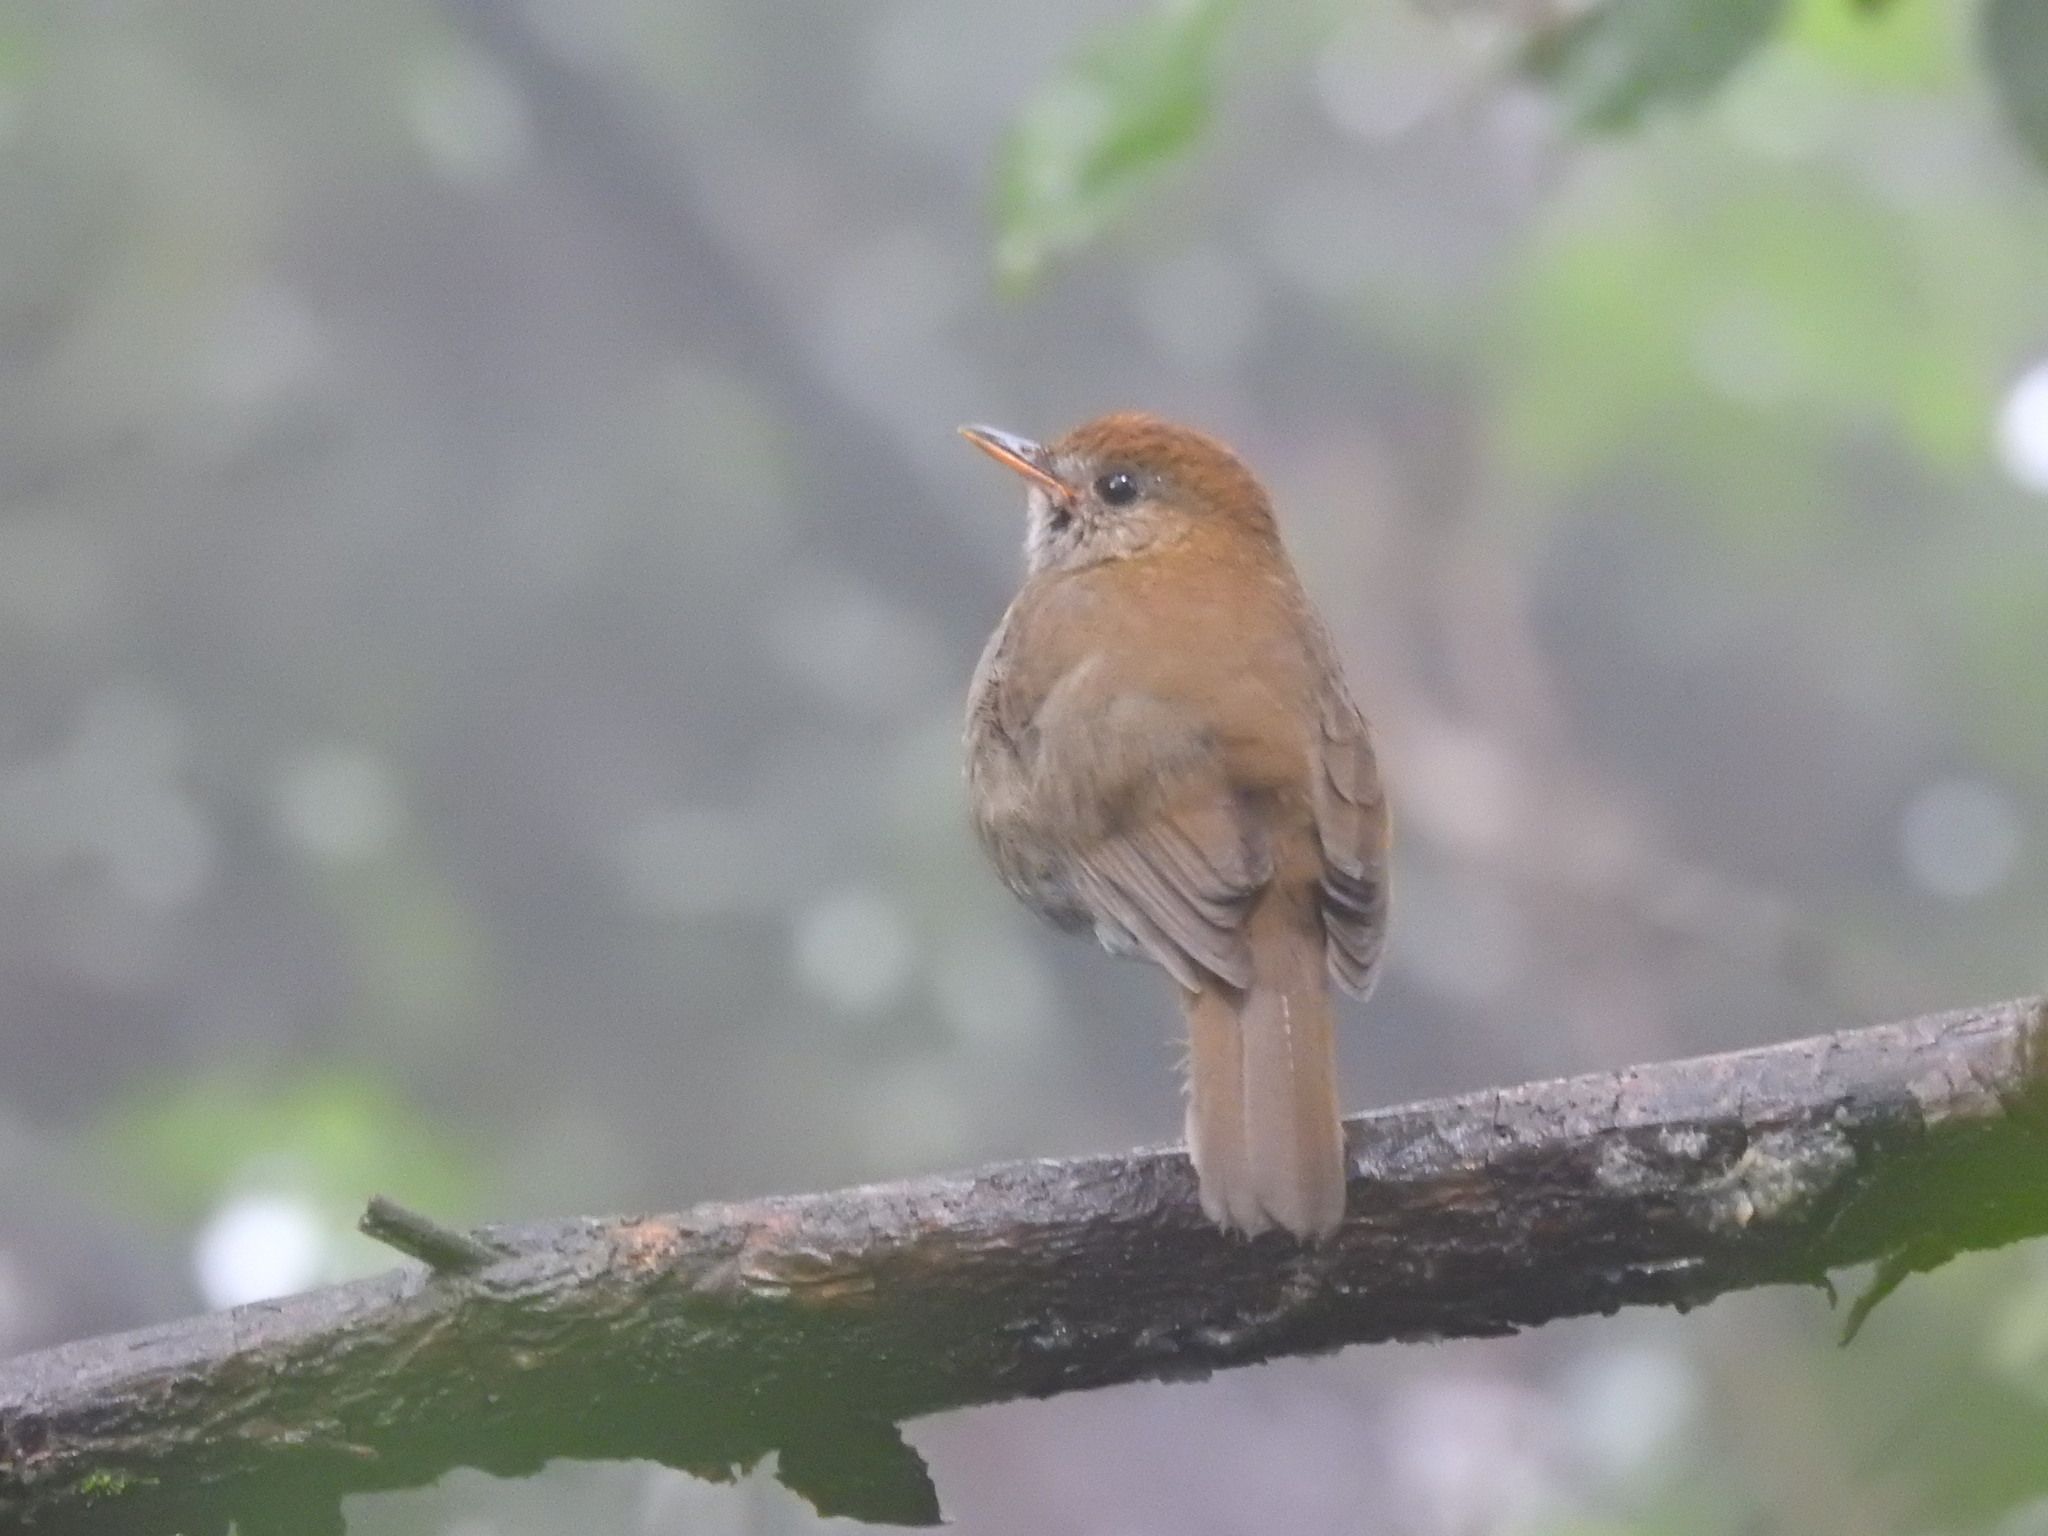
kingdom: Animalia
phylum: Chordata
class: Aves
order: Passeriformes
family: Turdidae
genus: Catharus
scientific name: Catharus frantzii
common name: Ruddy-capped nightingale-thrush
